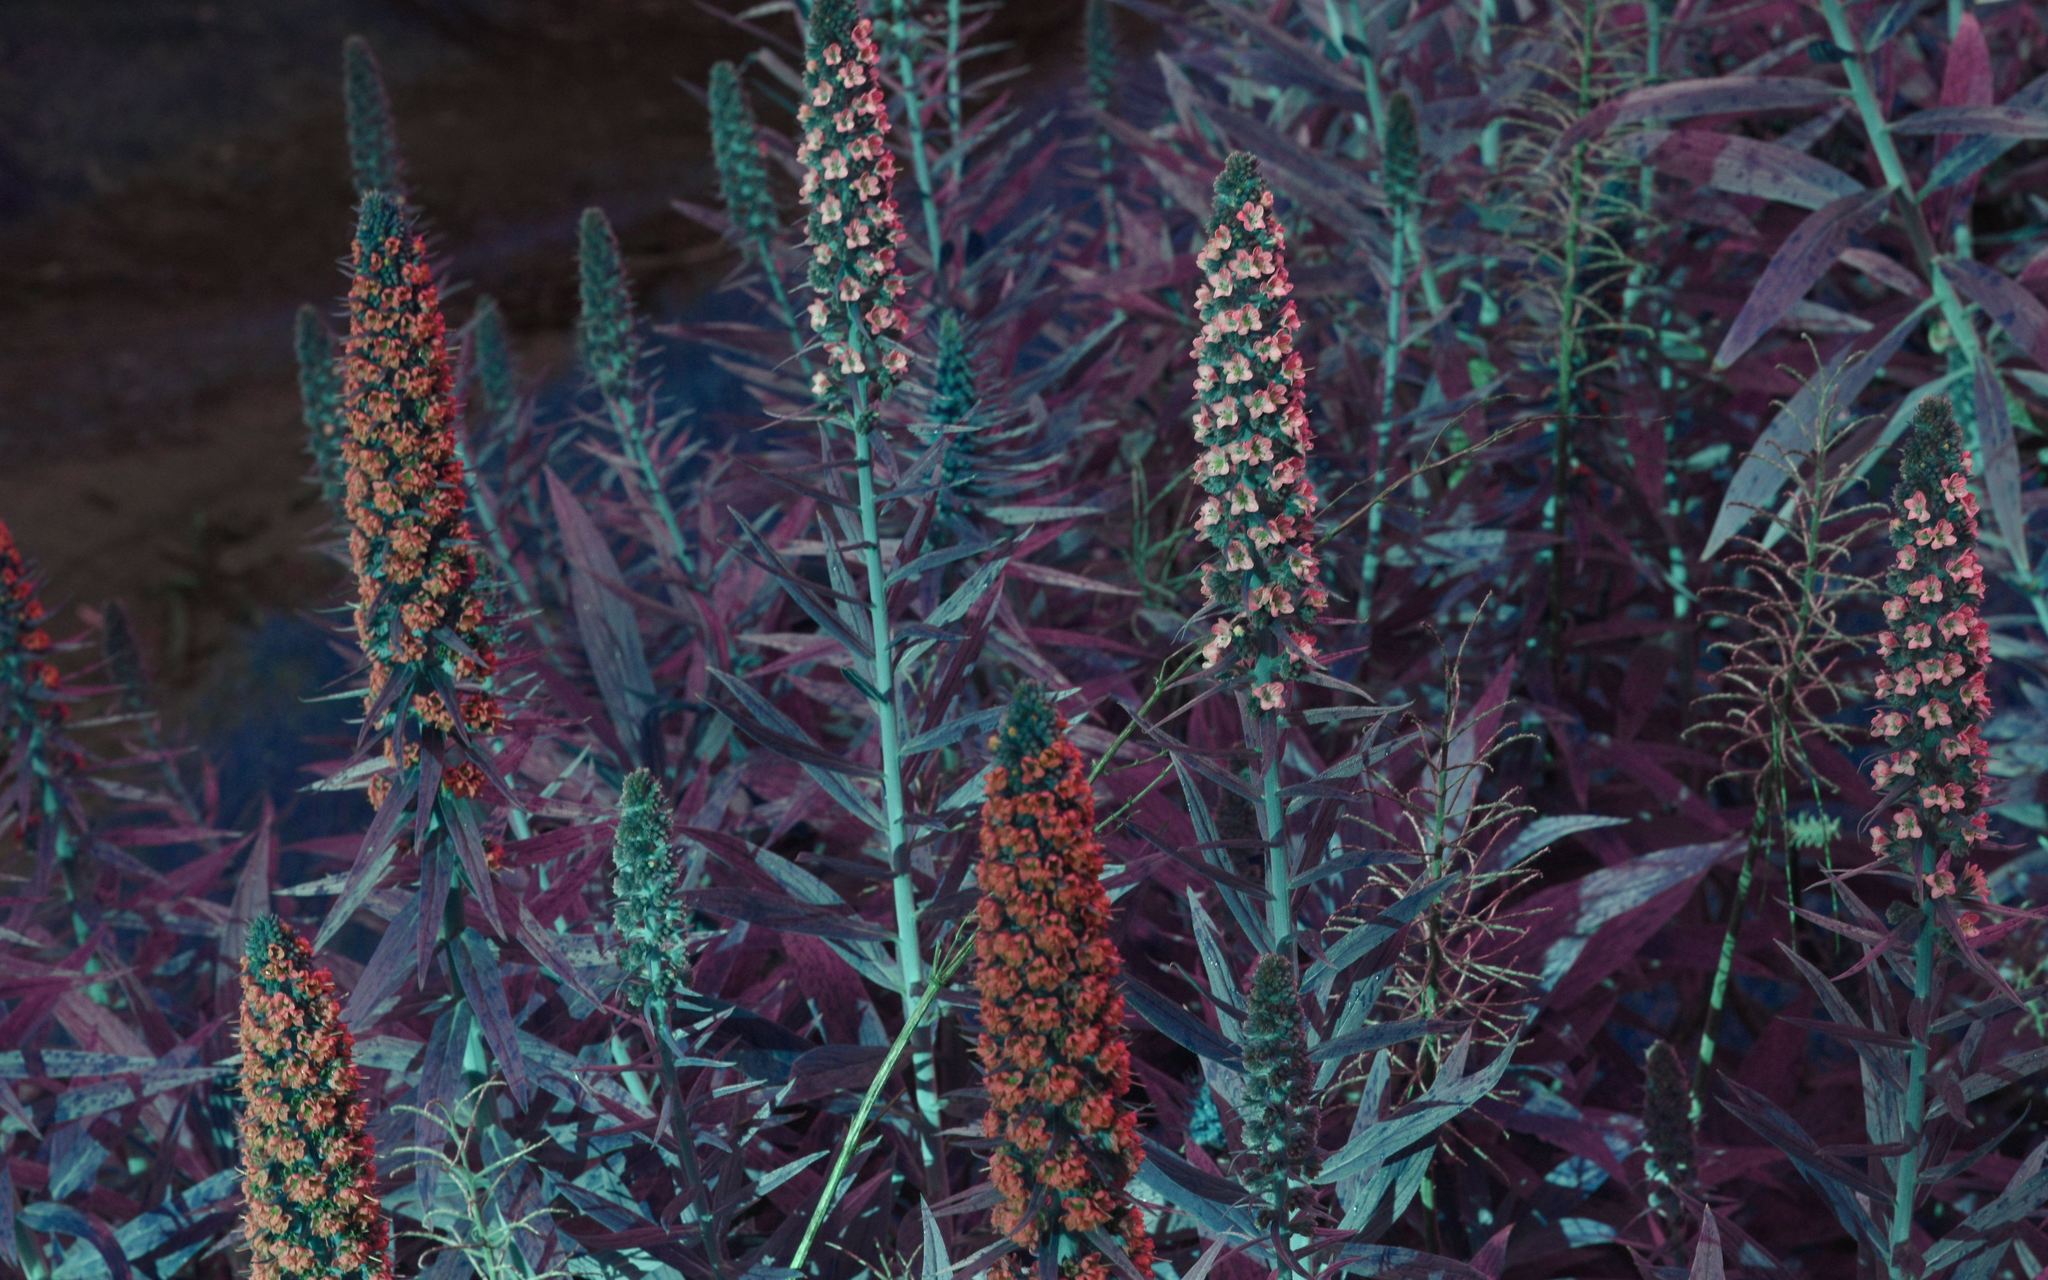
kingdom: Plantae
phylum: Tracheophyta
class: Magnoliopsida
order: Boraginales
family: Boraginaceae
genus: Echium
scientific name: Echium candicans
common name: Pride of madeira
